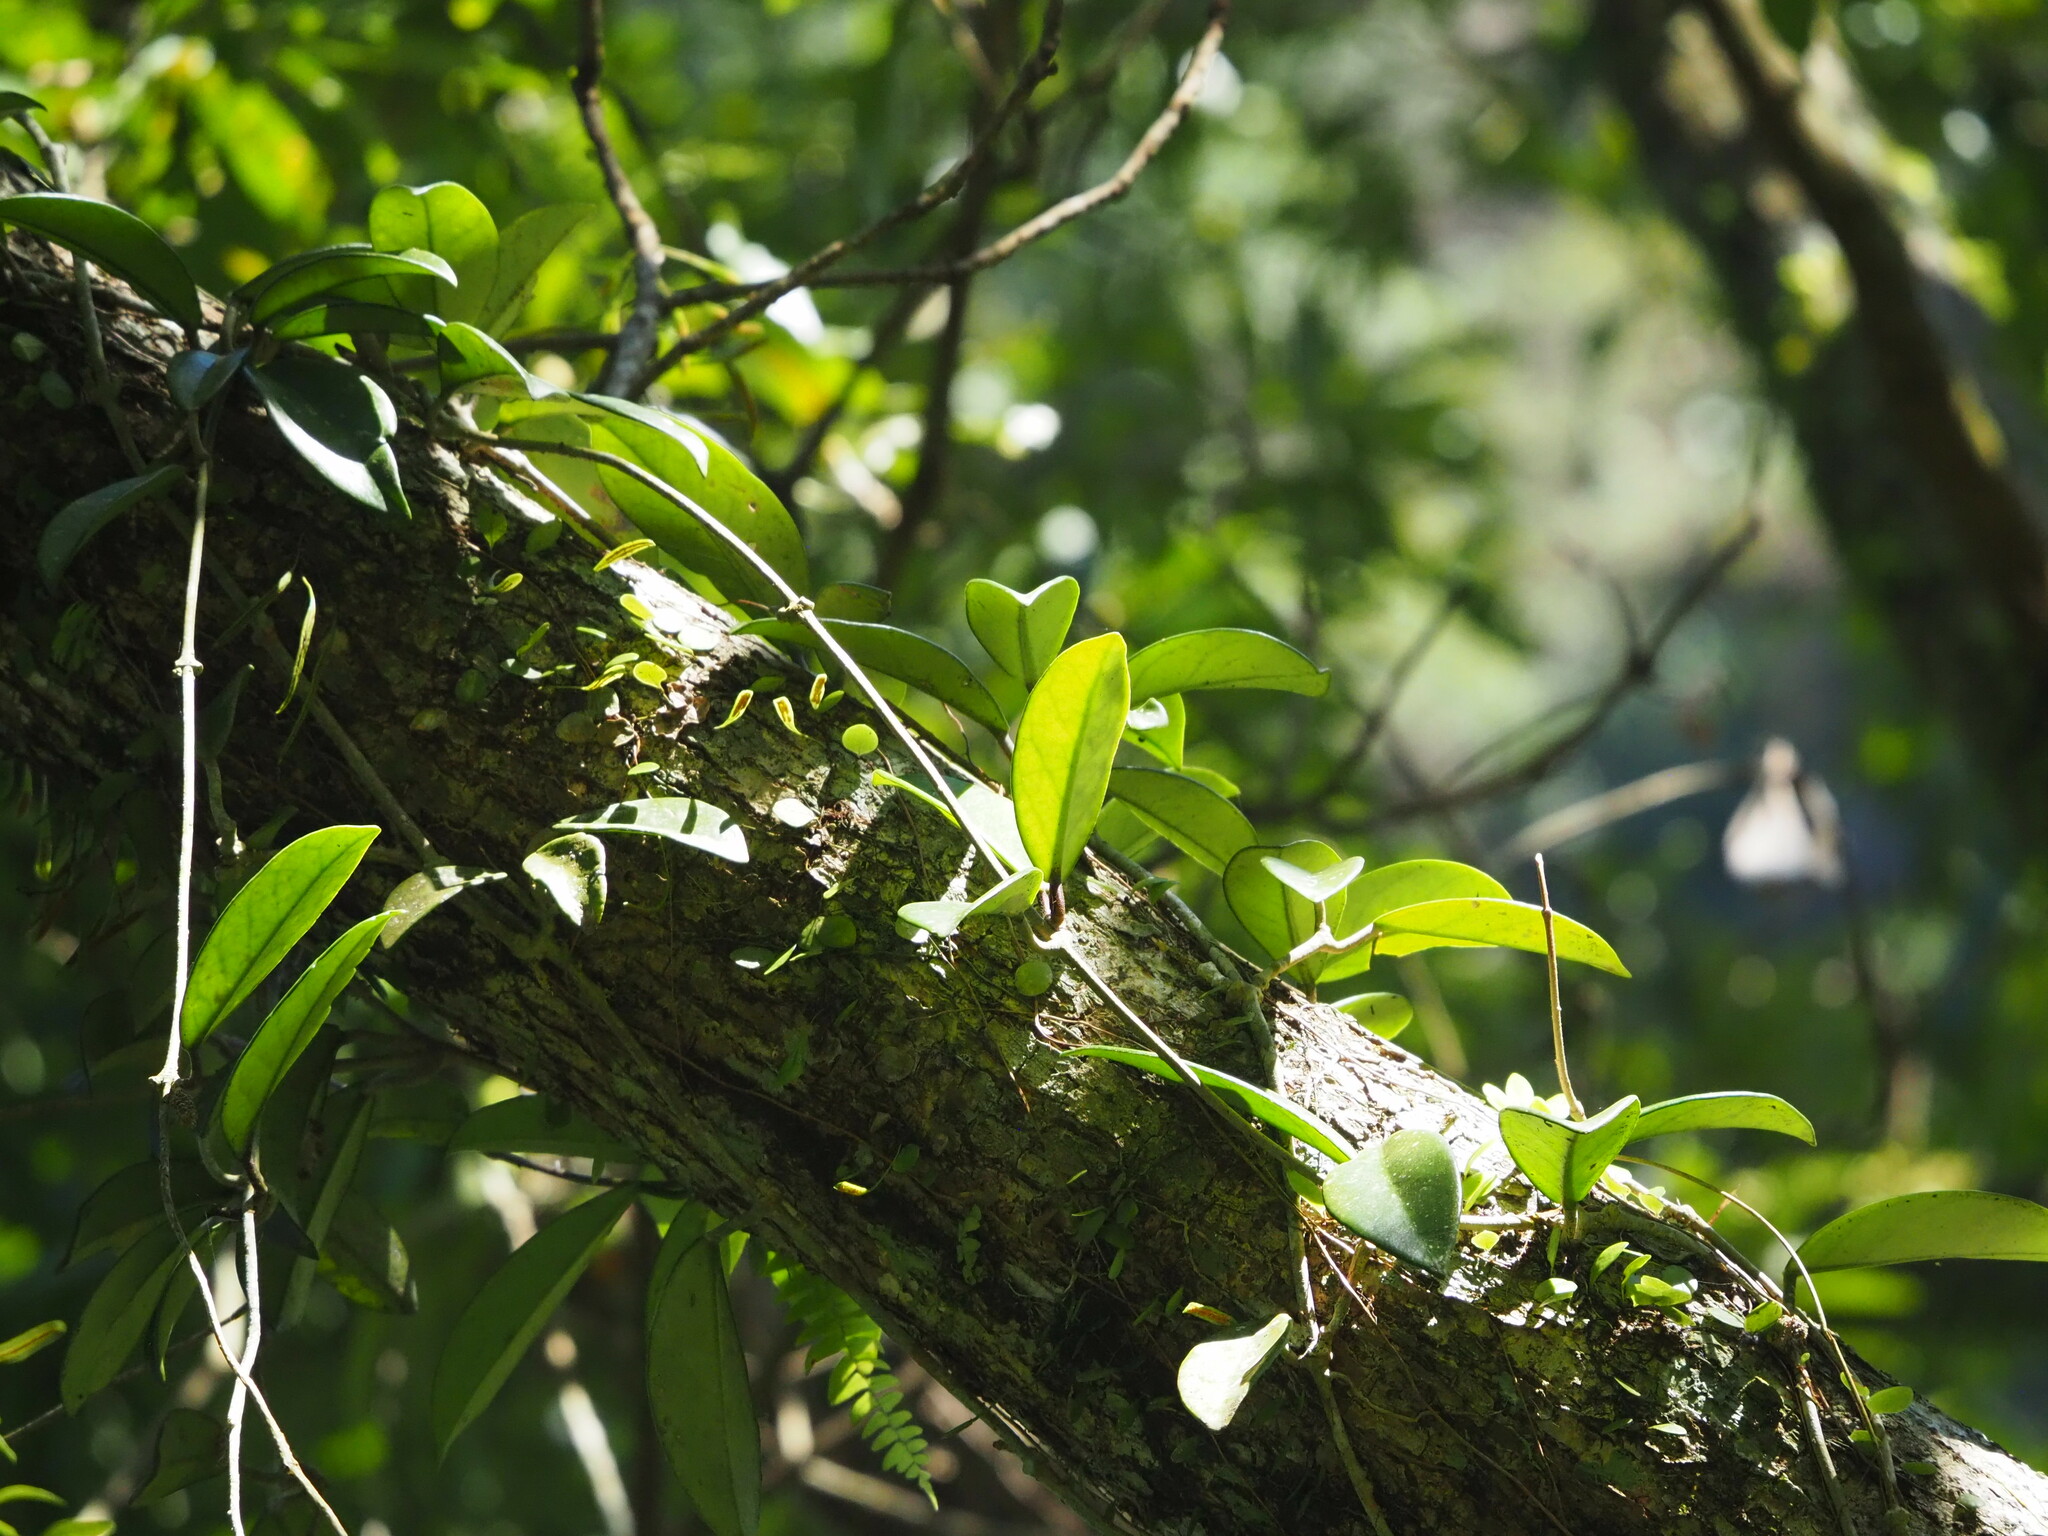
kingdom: Plantae
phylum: Tracheophyta
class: Magnoliopsida
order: Gentianales
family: Apocynaceae
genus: Hoya
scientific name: Hoya carnosa
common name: Honeyplant
